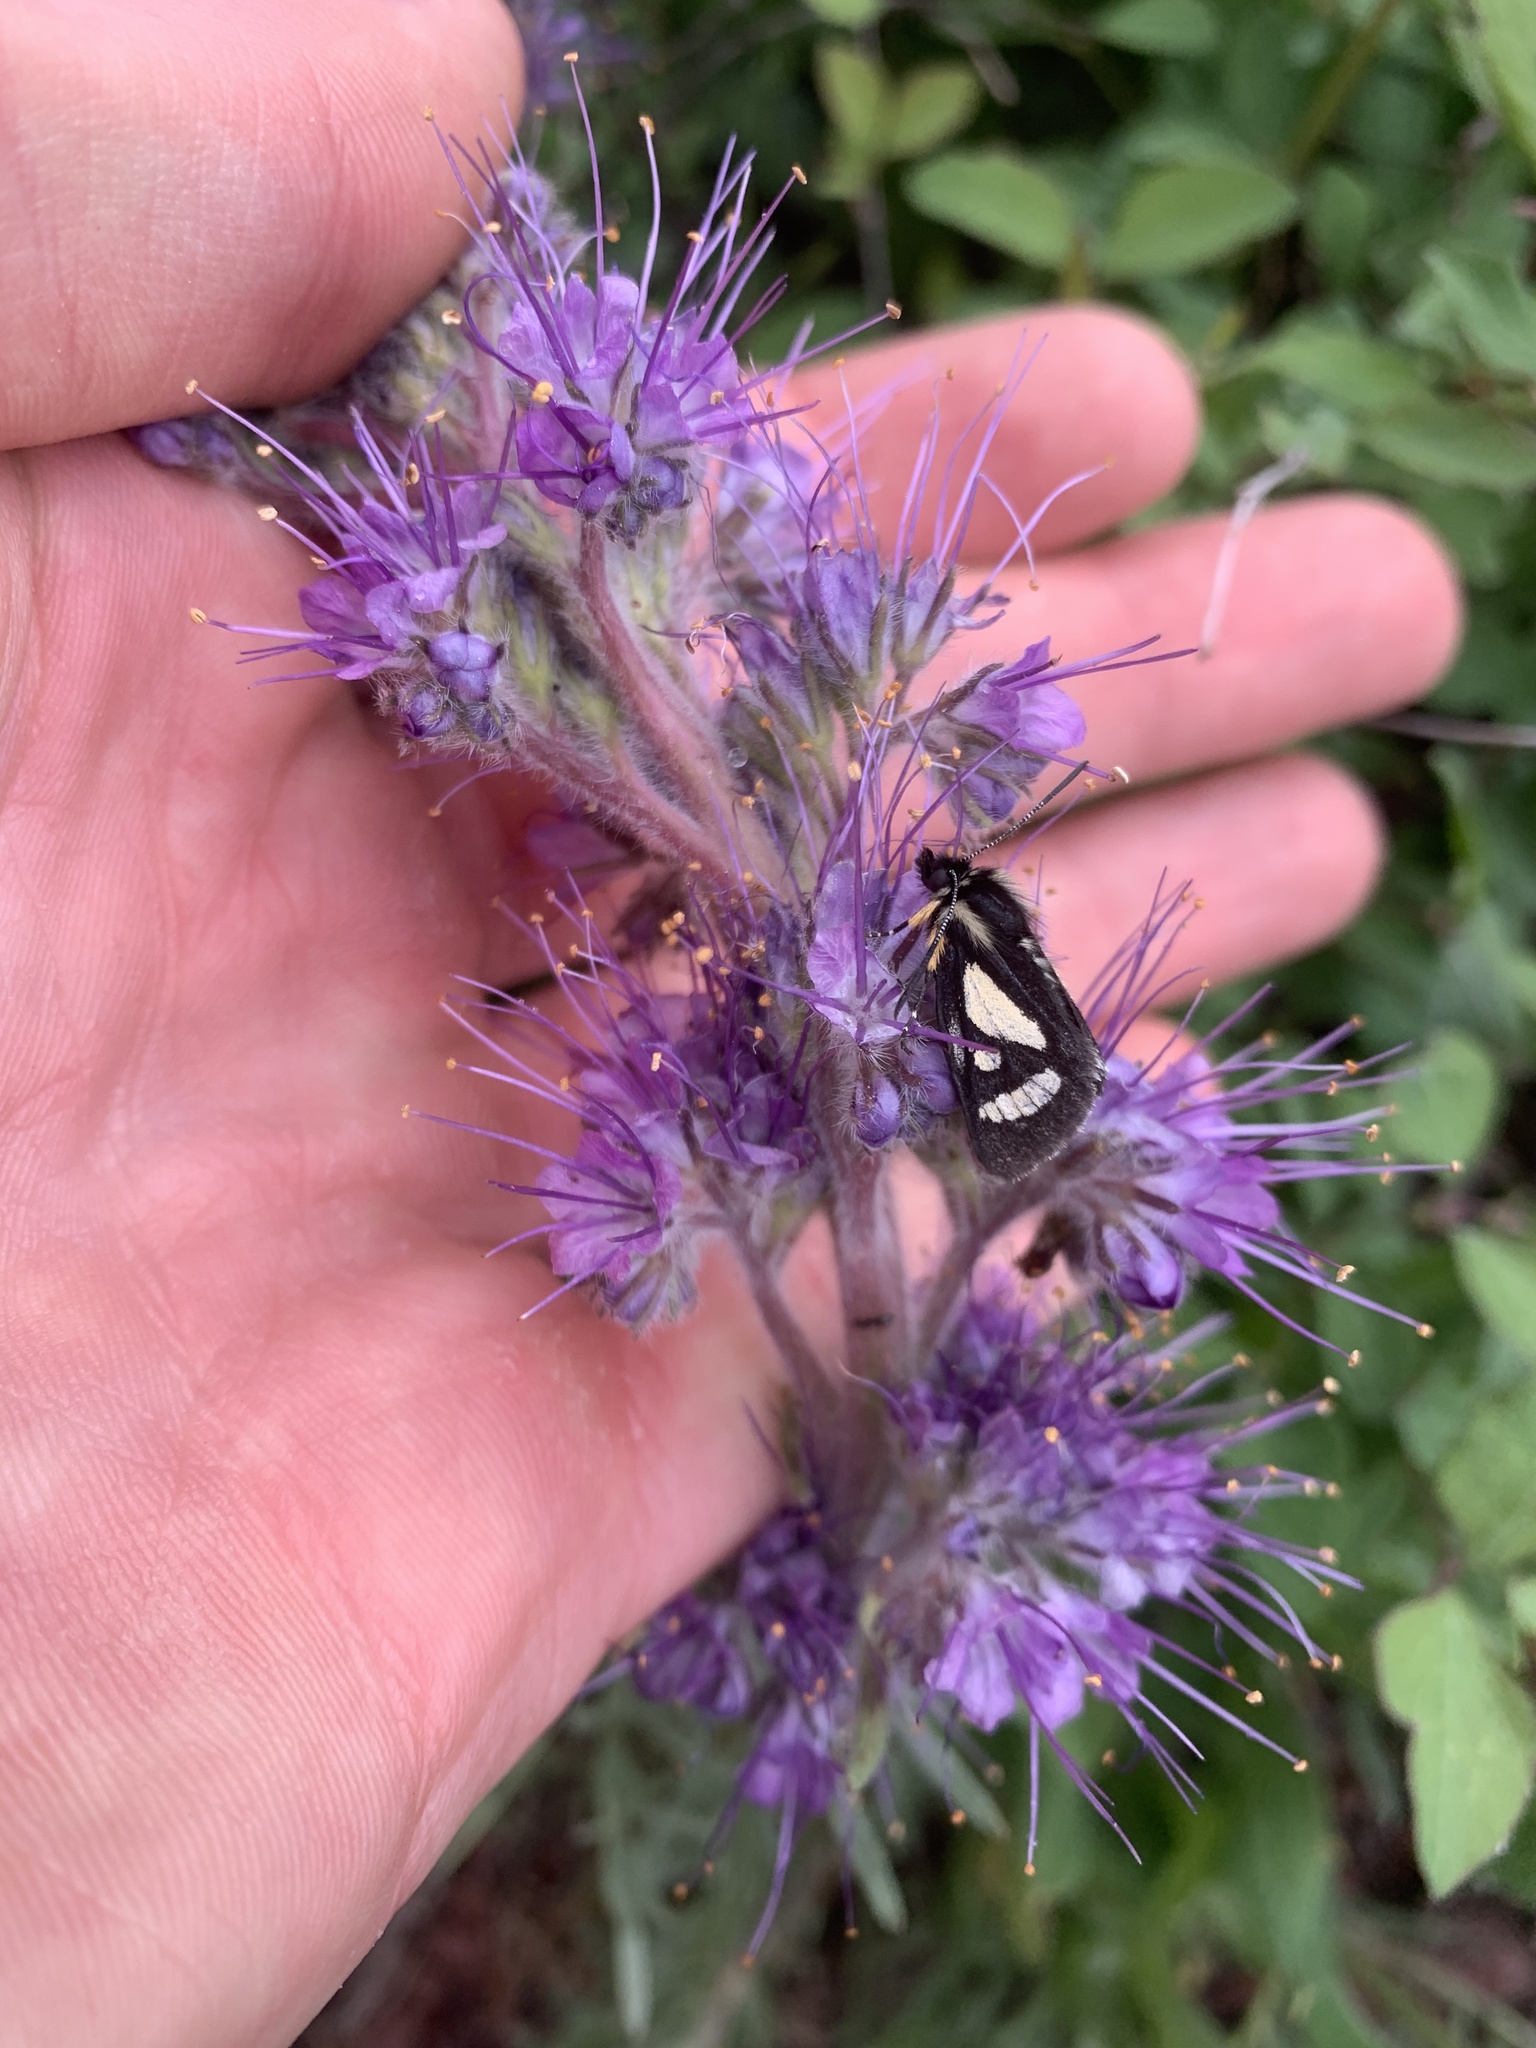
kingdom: Animalia
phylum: Arthropoda
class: Insecta
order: Lepidoptera
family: Noctuidae
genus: Alypia
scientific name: Alypia maccullochii
